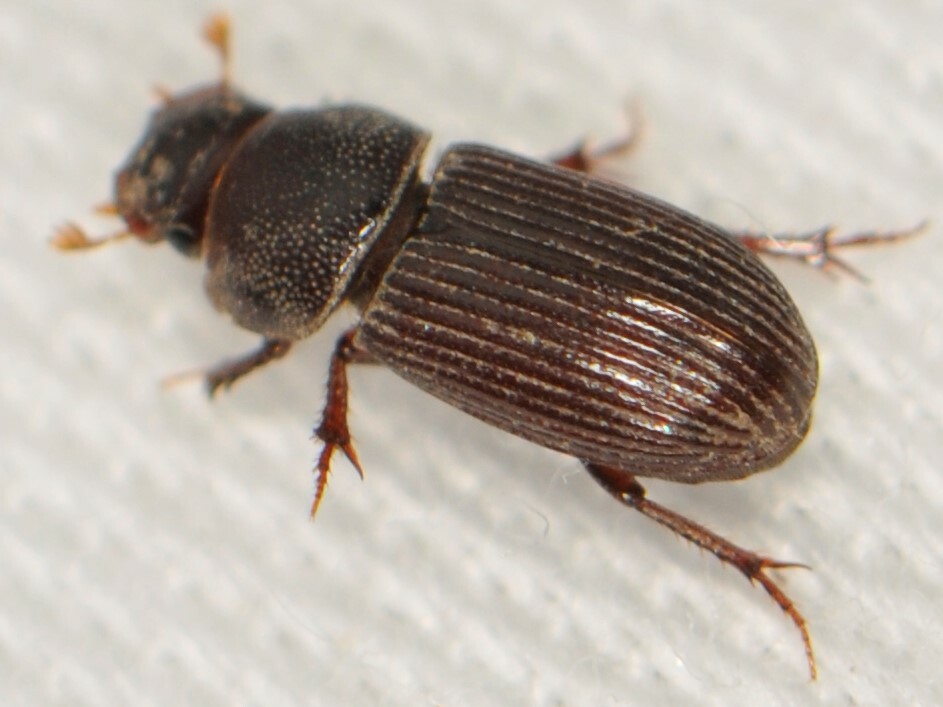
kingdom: Animalia
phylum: Arthropoda
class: Insecta
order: Coleoptera
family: Scarabaeidae
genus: Ataenius
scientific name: Ataenius
